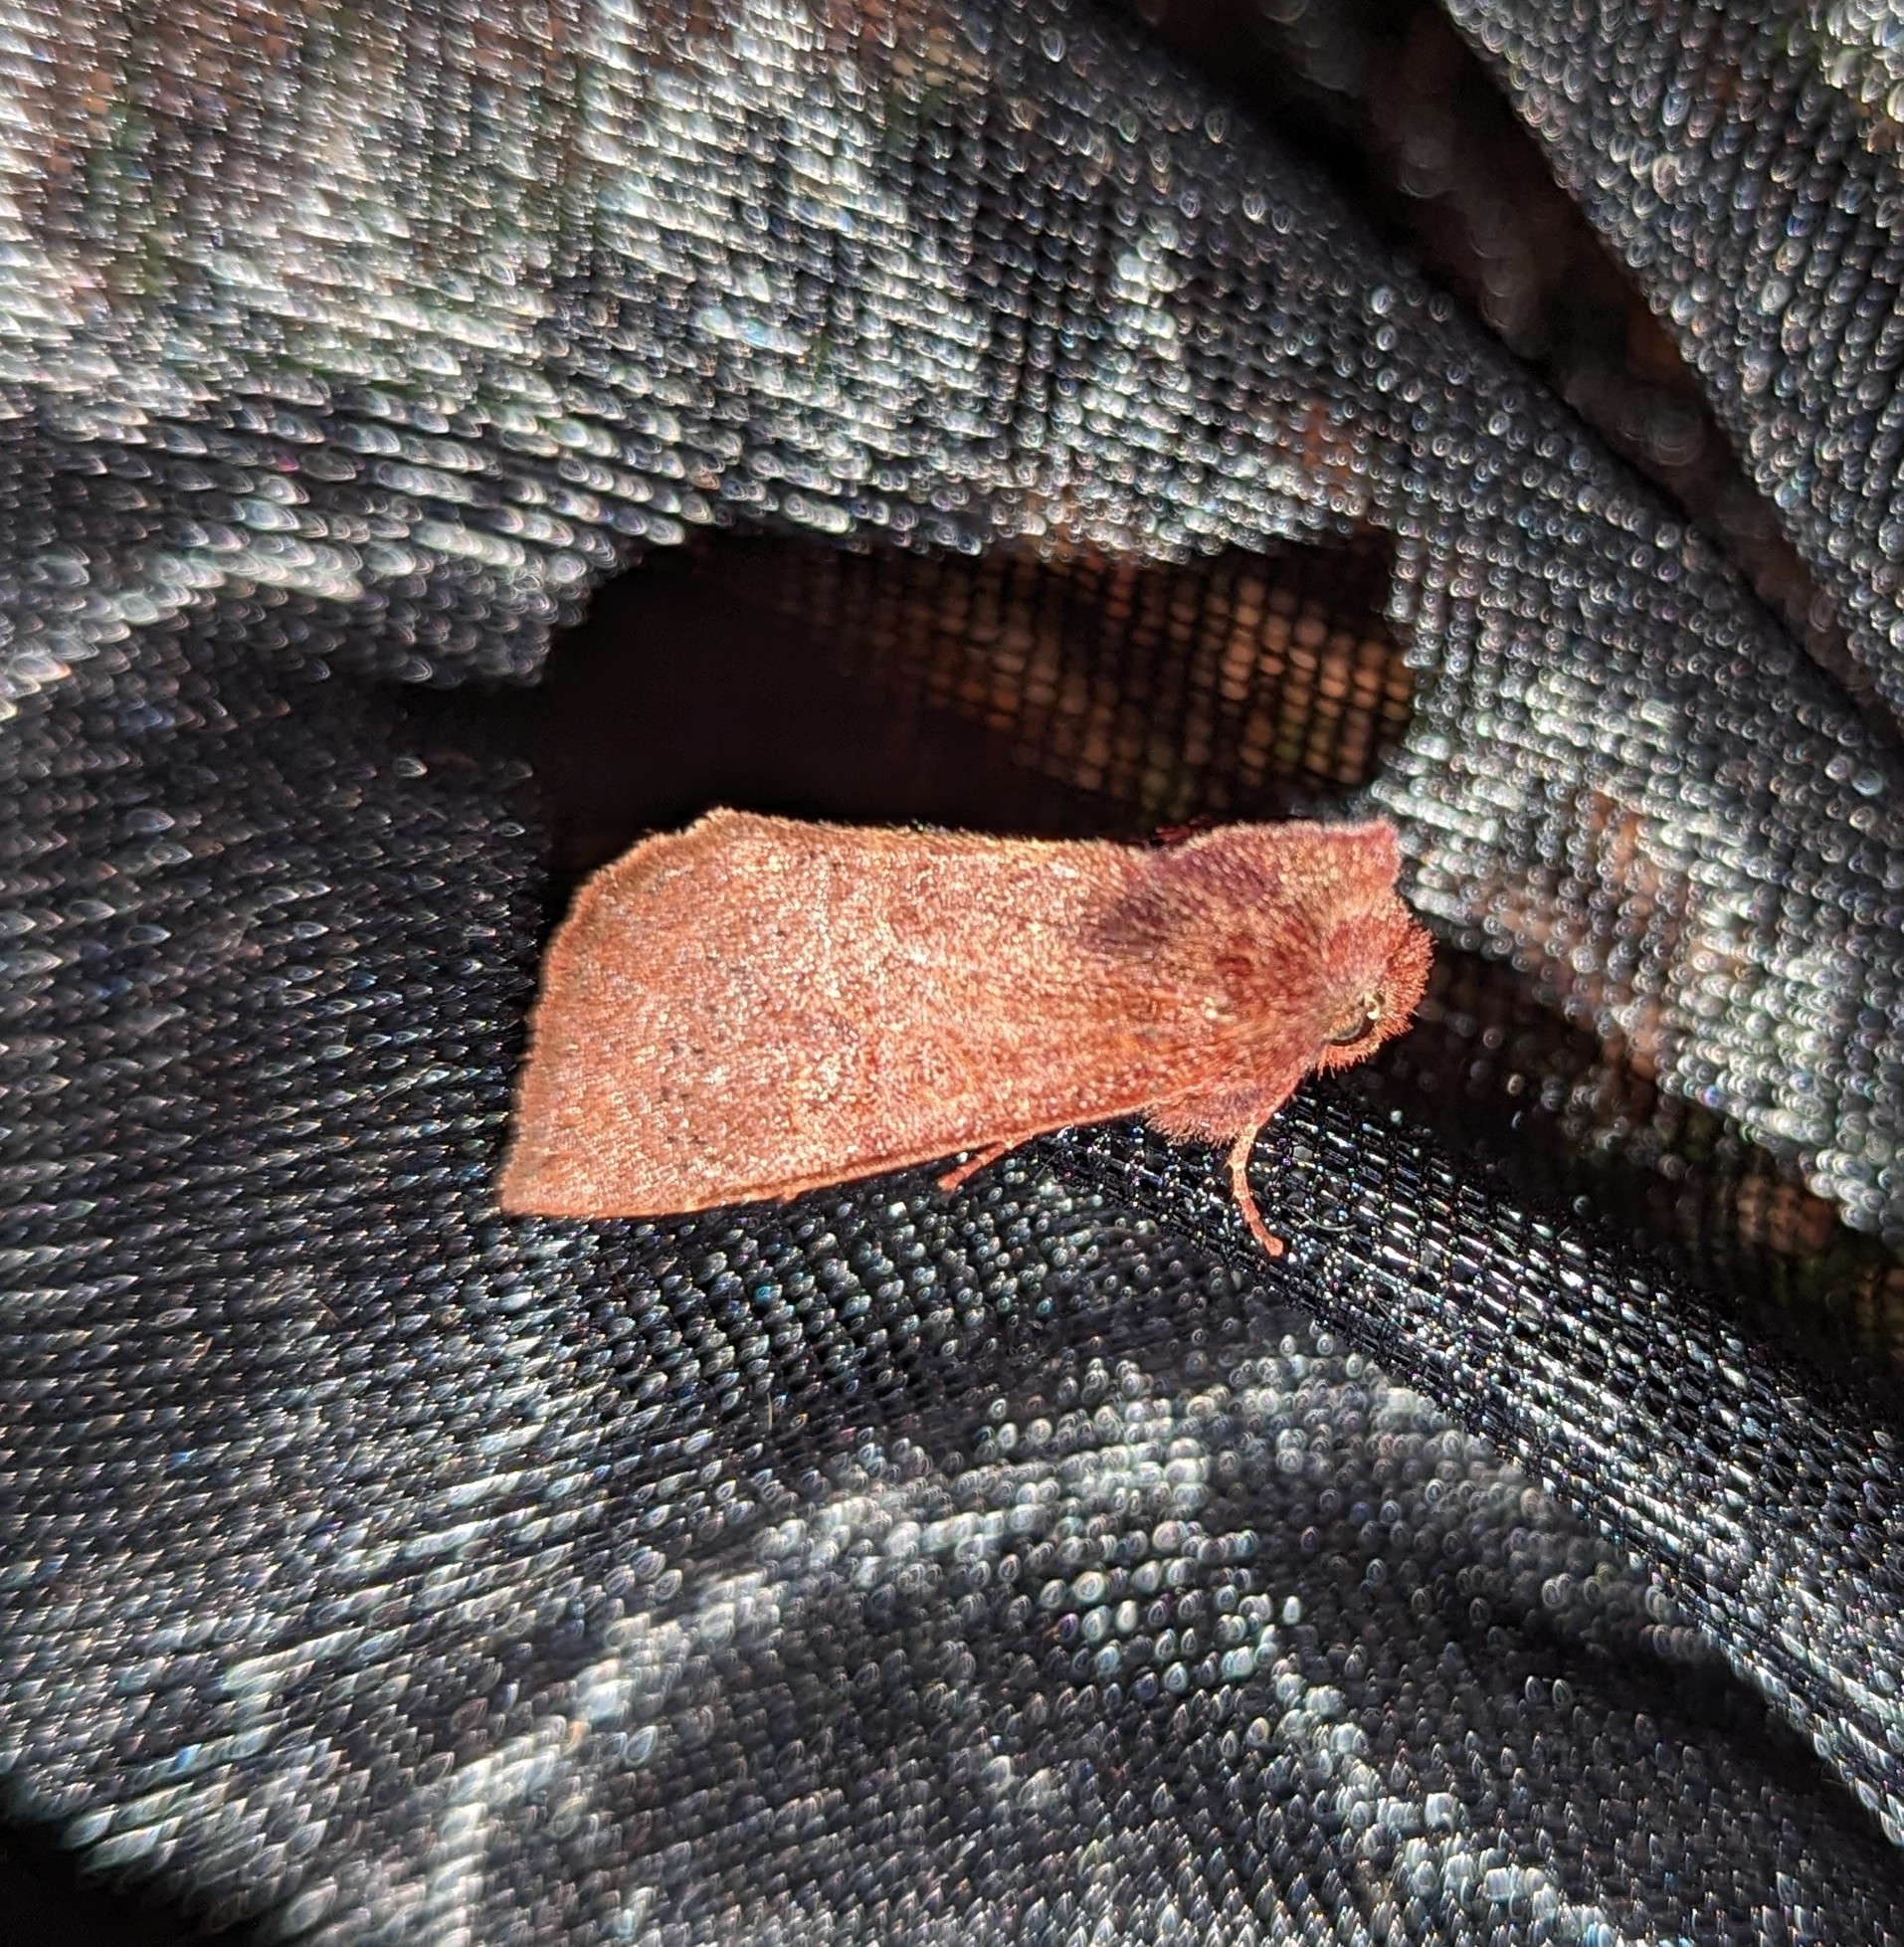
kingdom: Animalia
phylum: Arthropoda
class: Insecta
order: Lepidoptera
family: Noctuidae
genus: Orthosia
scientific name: Orthosia transparens
